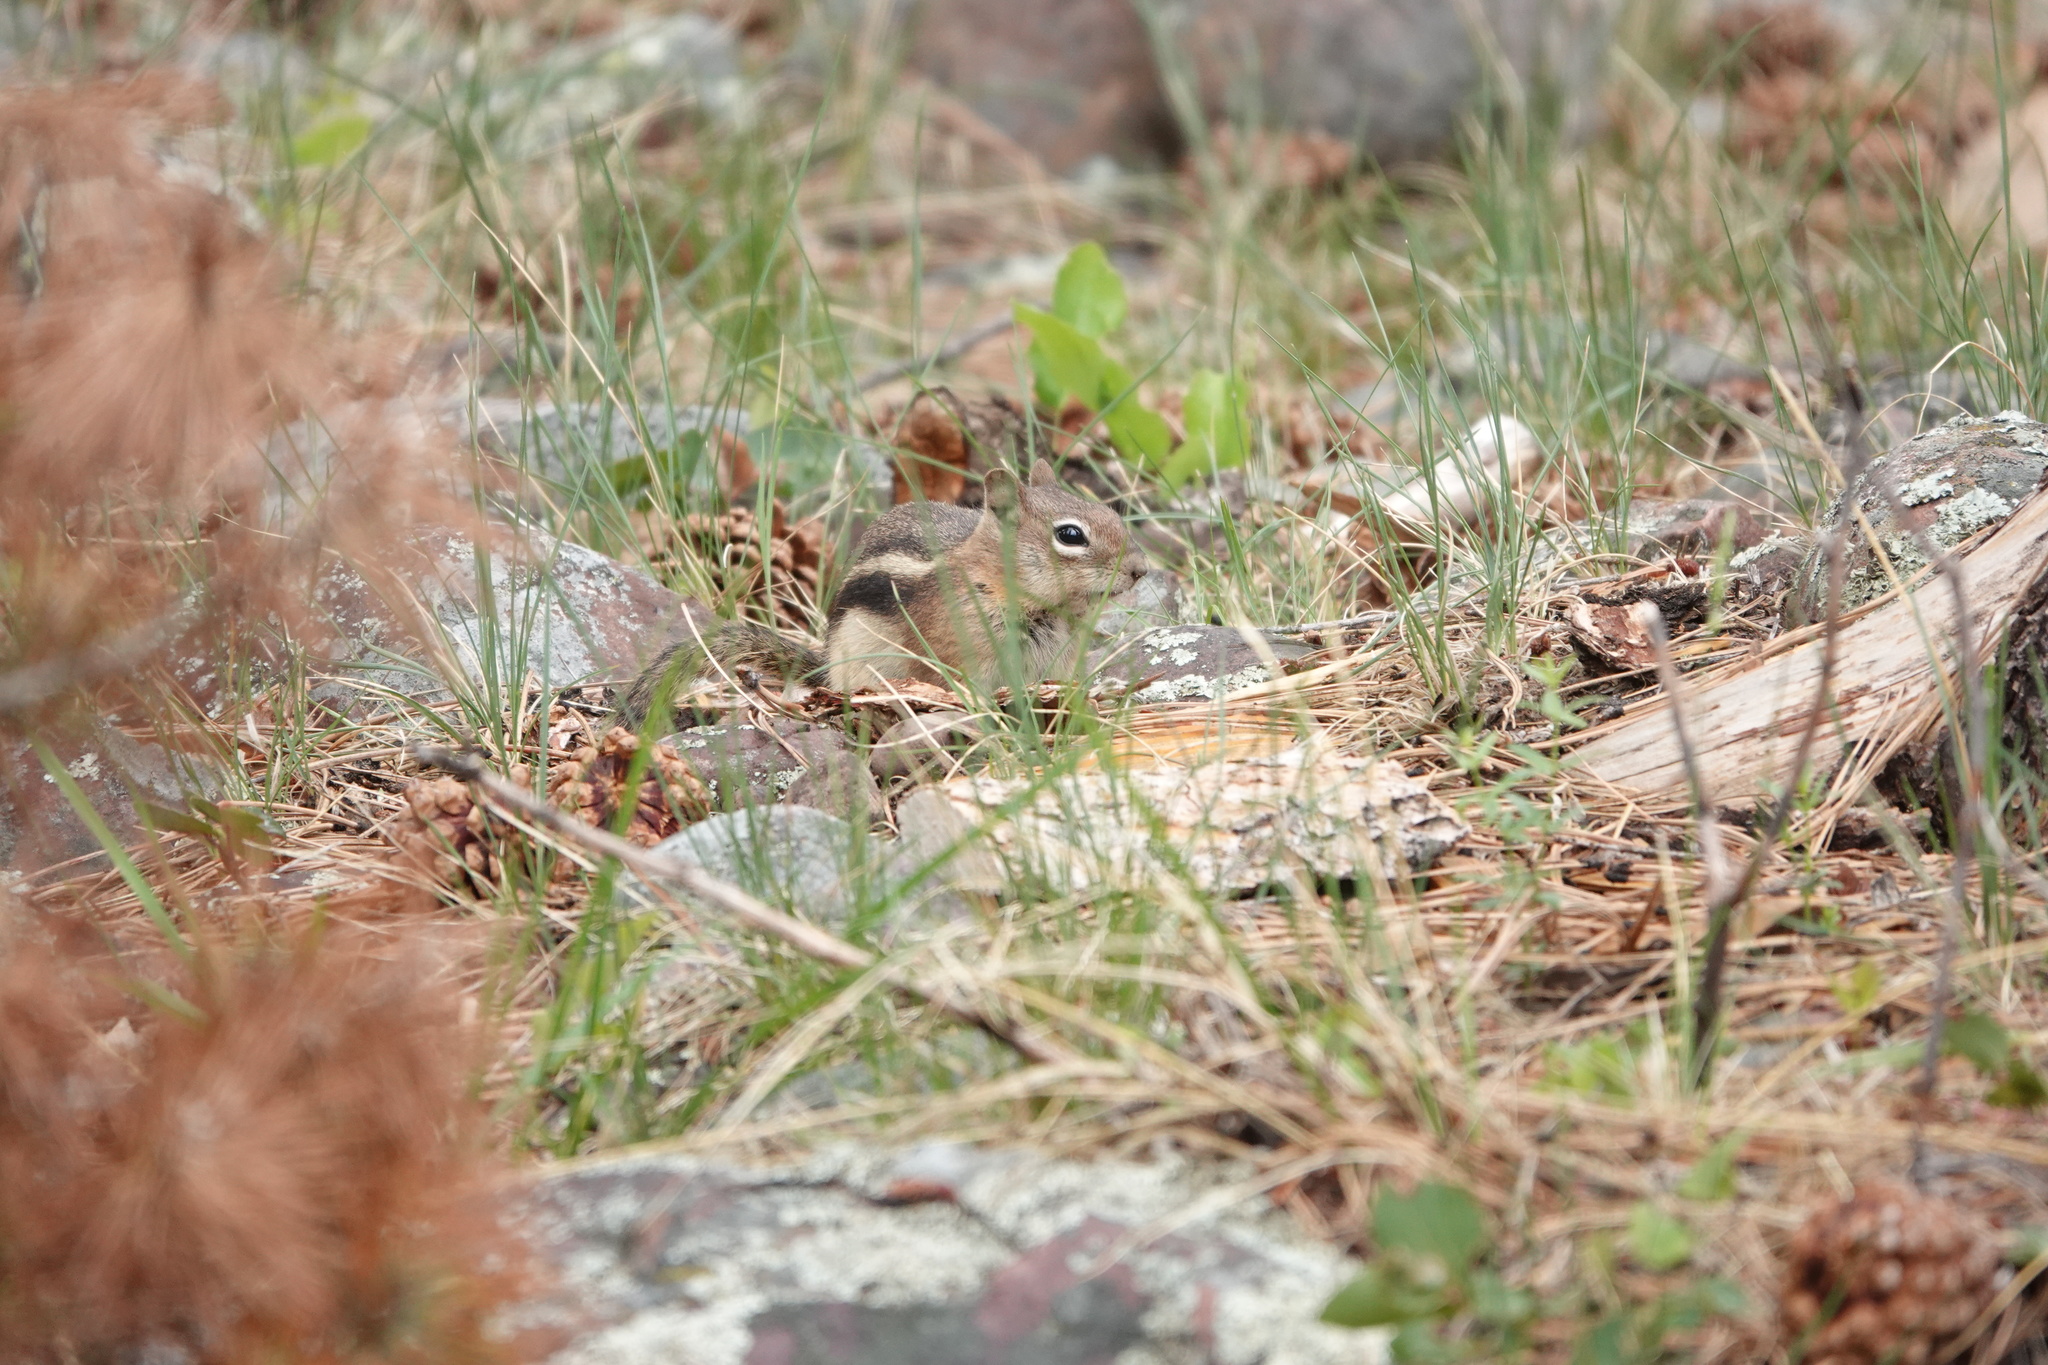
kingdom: Animalia
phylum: Chordata
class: Mammalia
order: Rodentia
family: Sciuridae
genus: Callospermophilus
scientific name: Callospermophilus lateralis
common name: Golden-mantled ground squirrel
